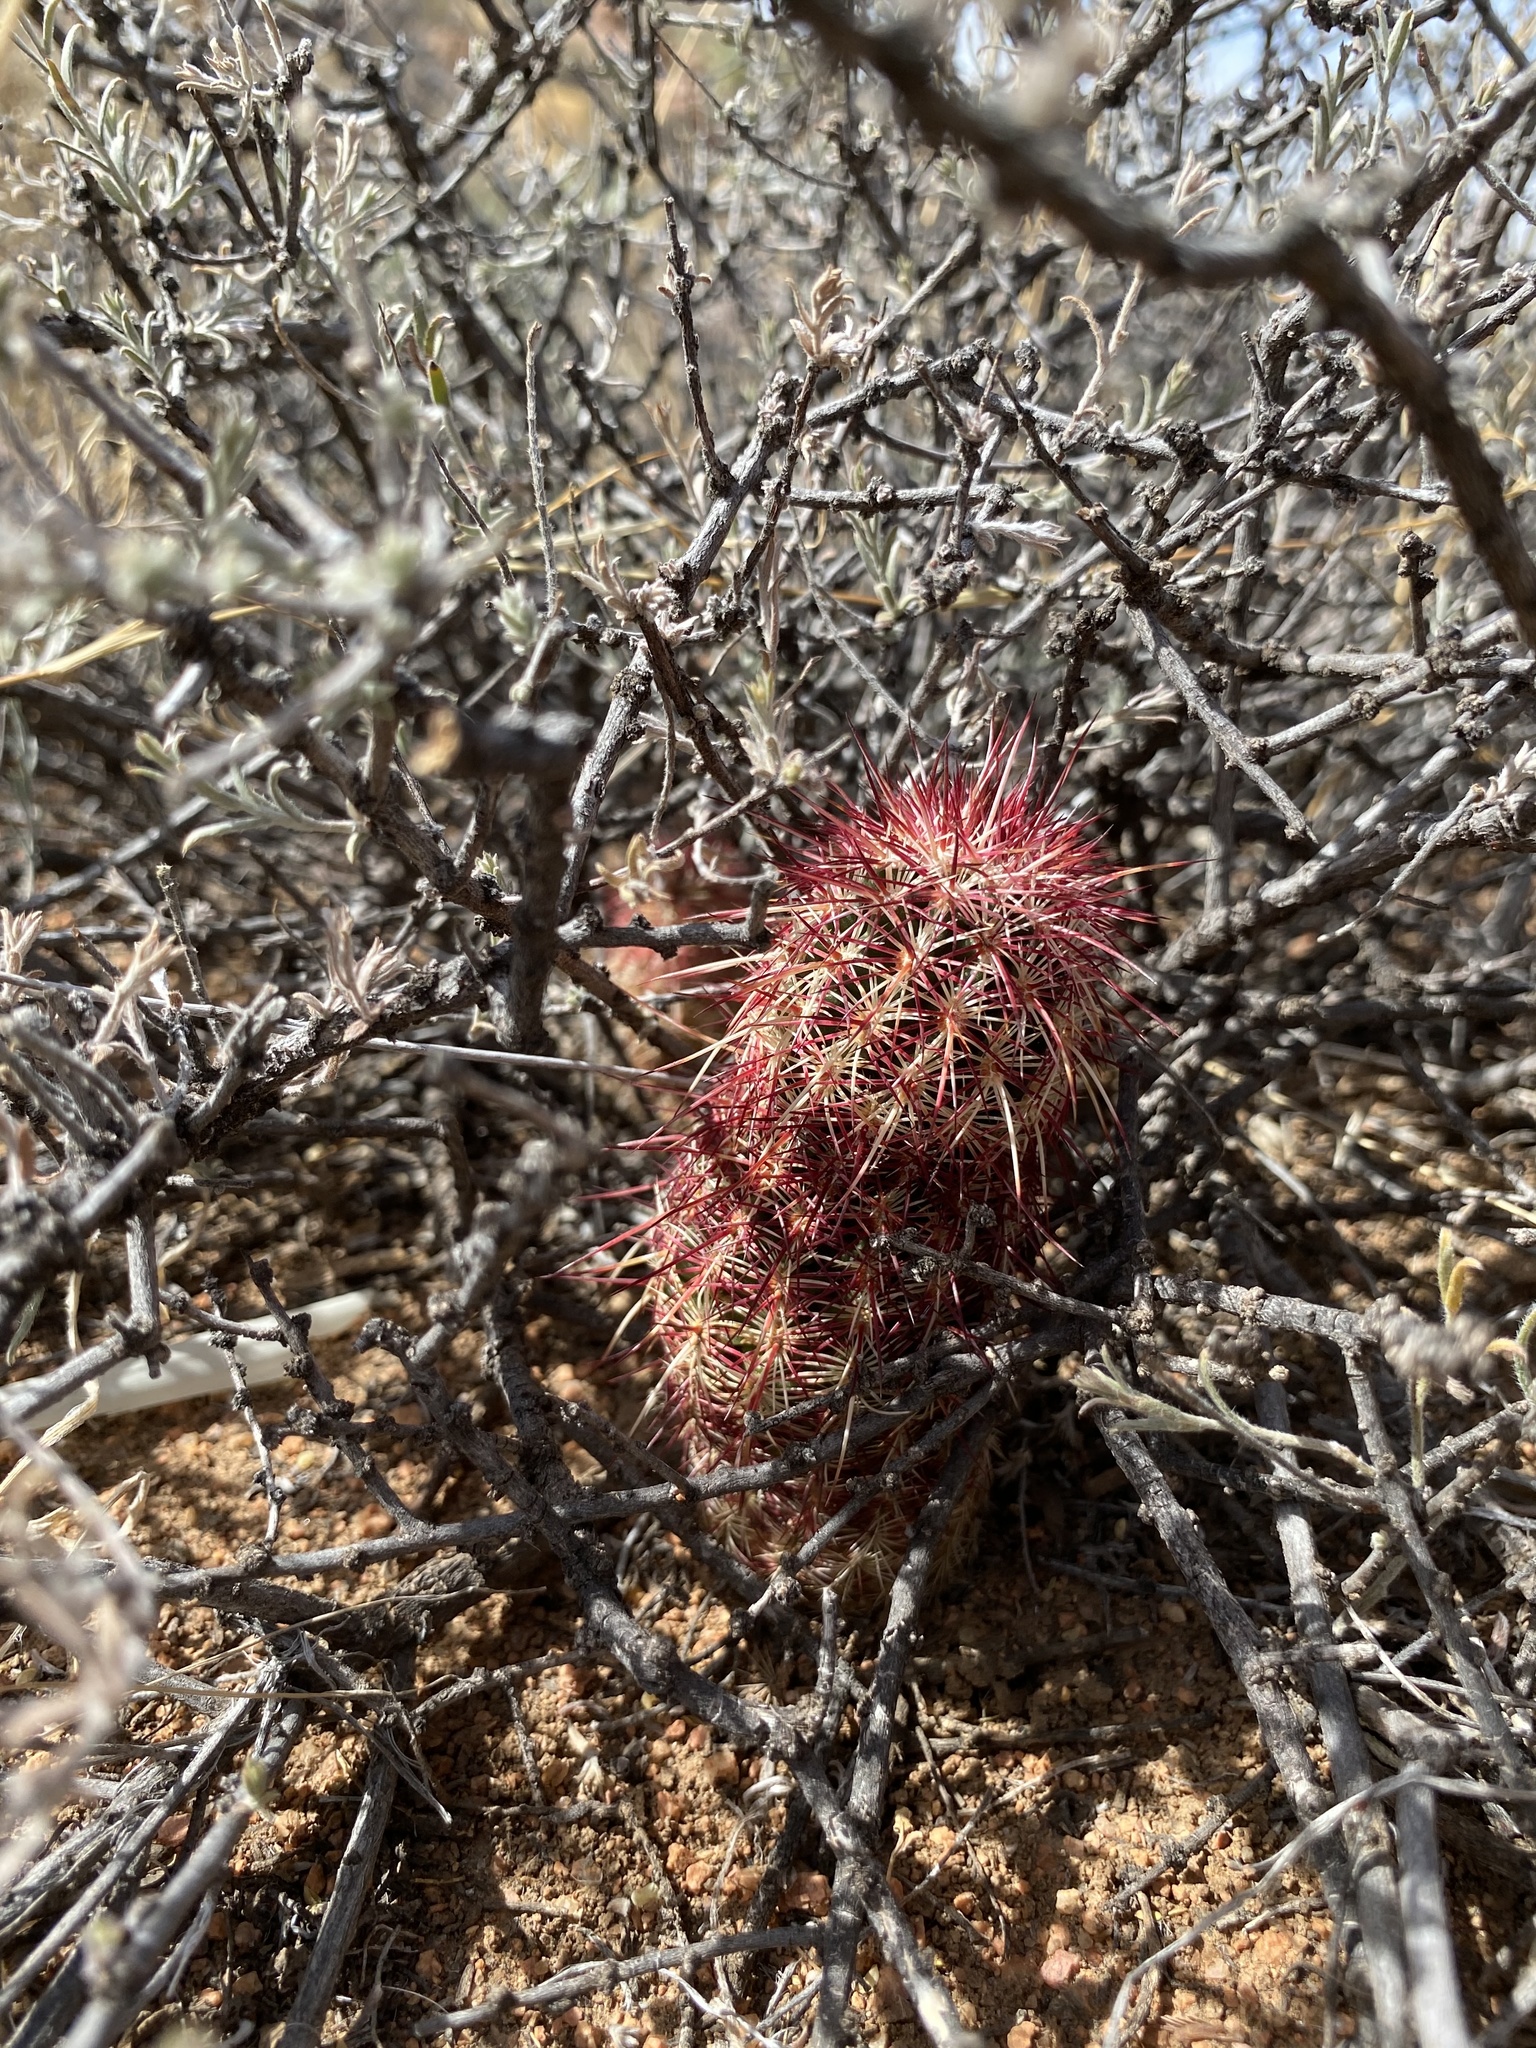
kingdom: Plantae
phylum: Tracheophyta
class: Magnoliopsida
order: Caryophyllales
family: Cactaceae
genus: Echinocereus
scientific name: Echinocereus viridiflorus
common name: Nylon hedgehog cactus
